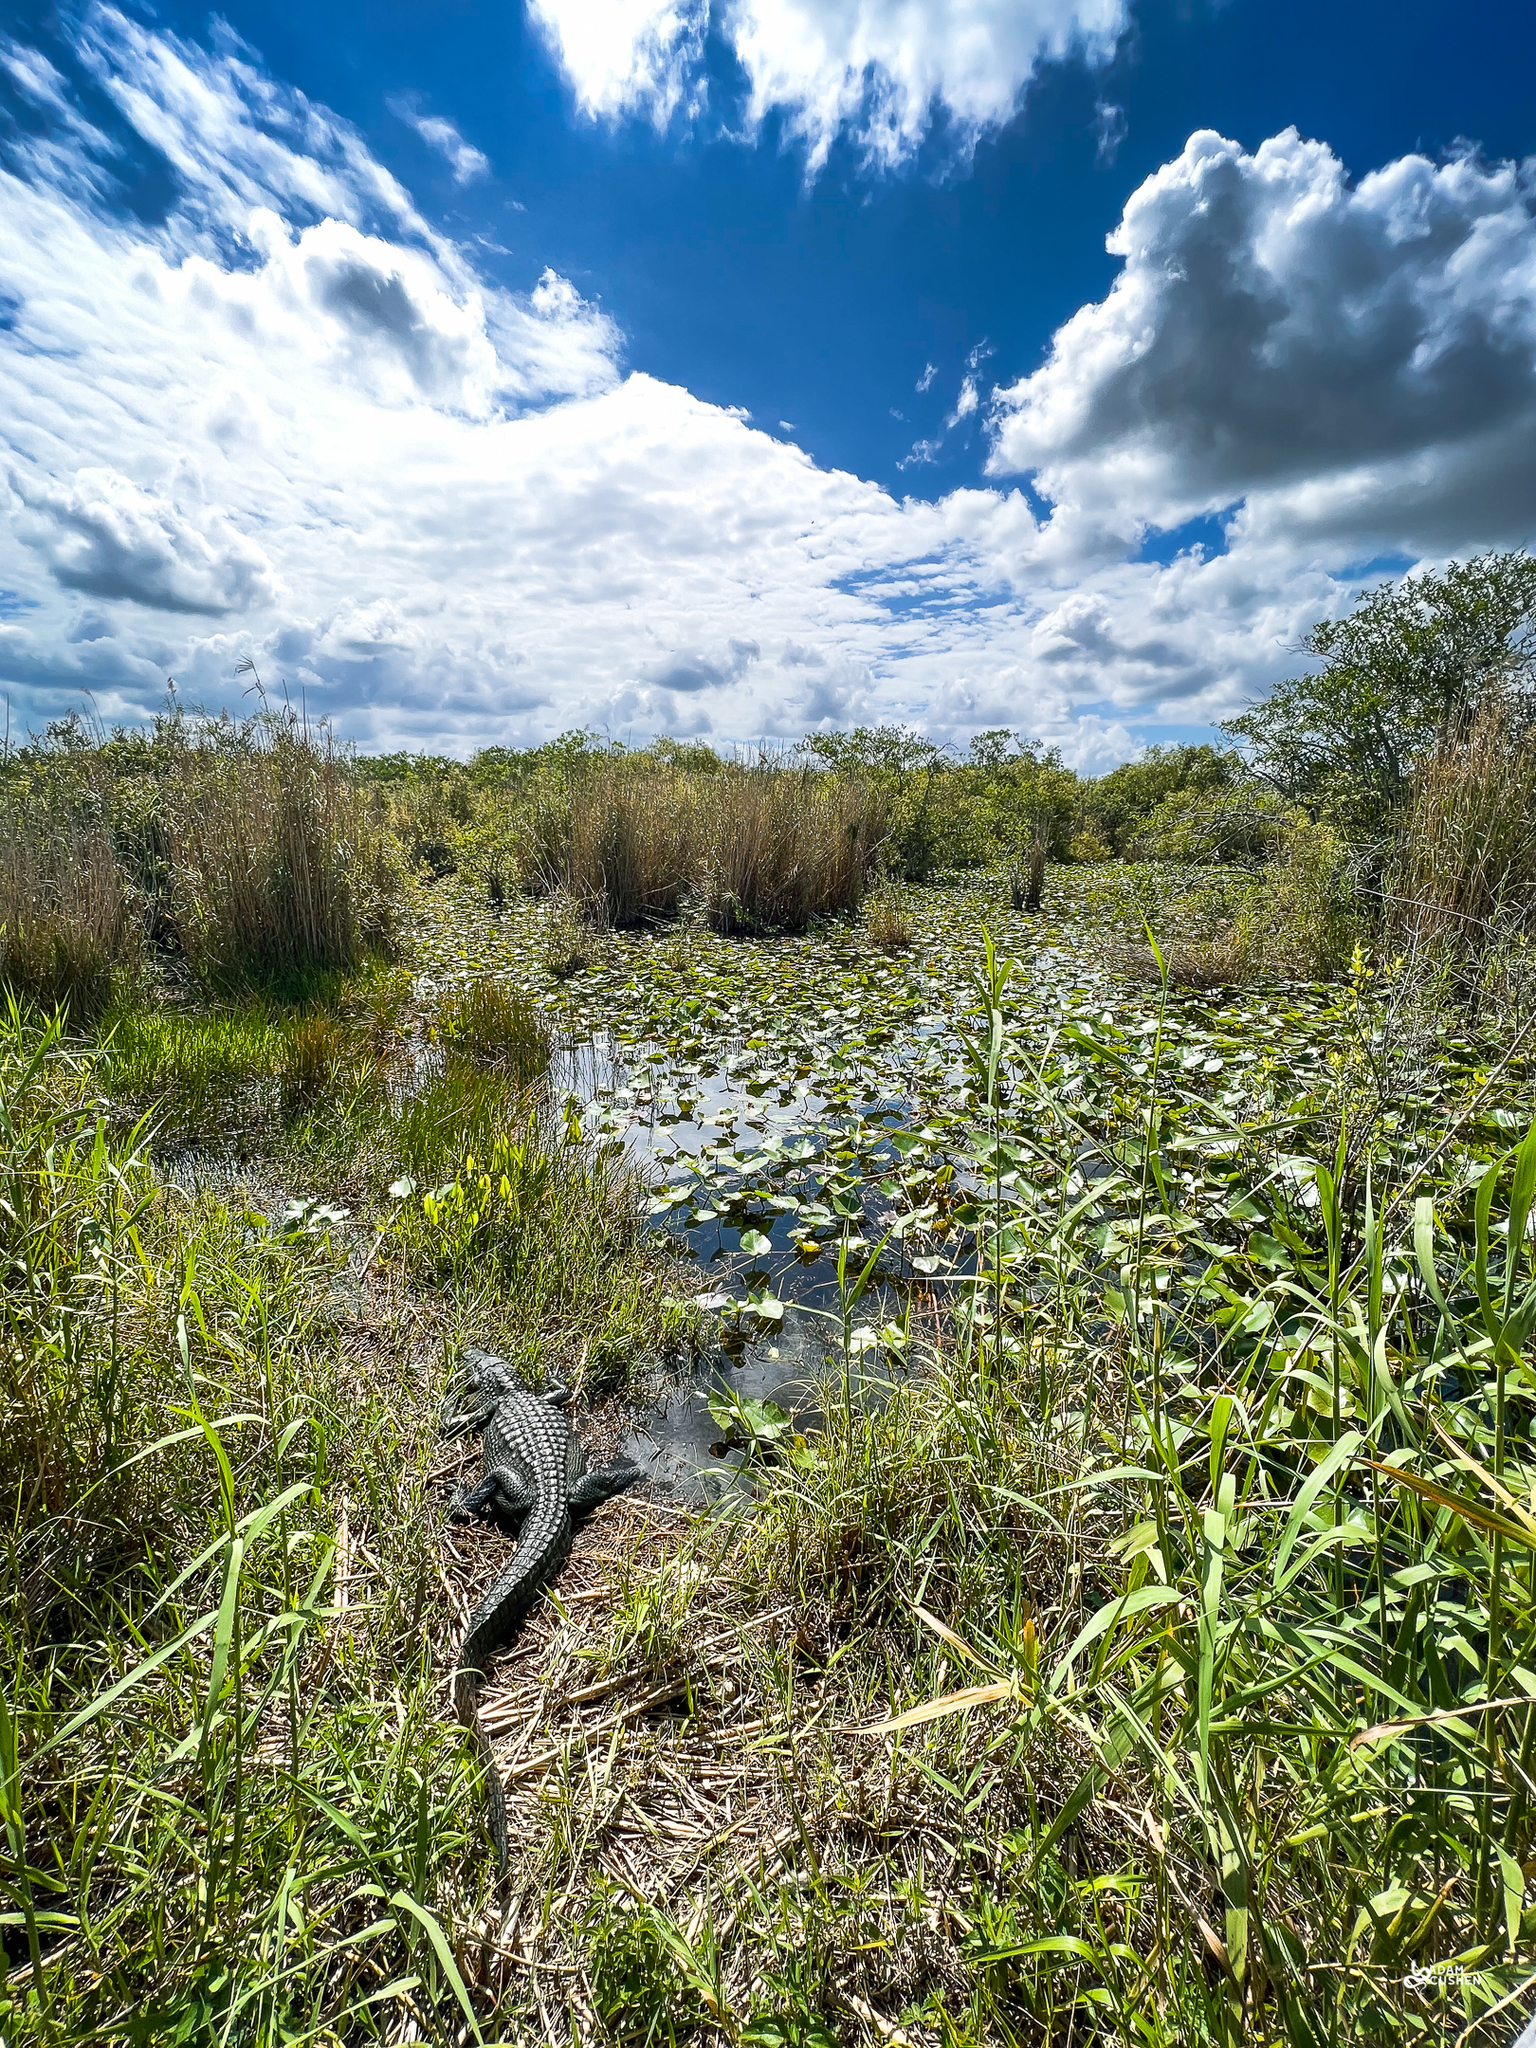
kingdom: Animalia
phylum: Chordata
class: Crocodylia
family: Alligatoridae
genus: Alligator
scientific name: Alligator mississippiensis
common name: American alligator
